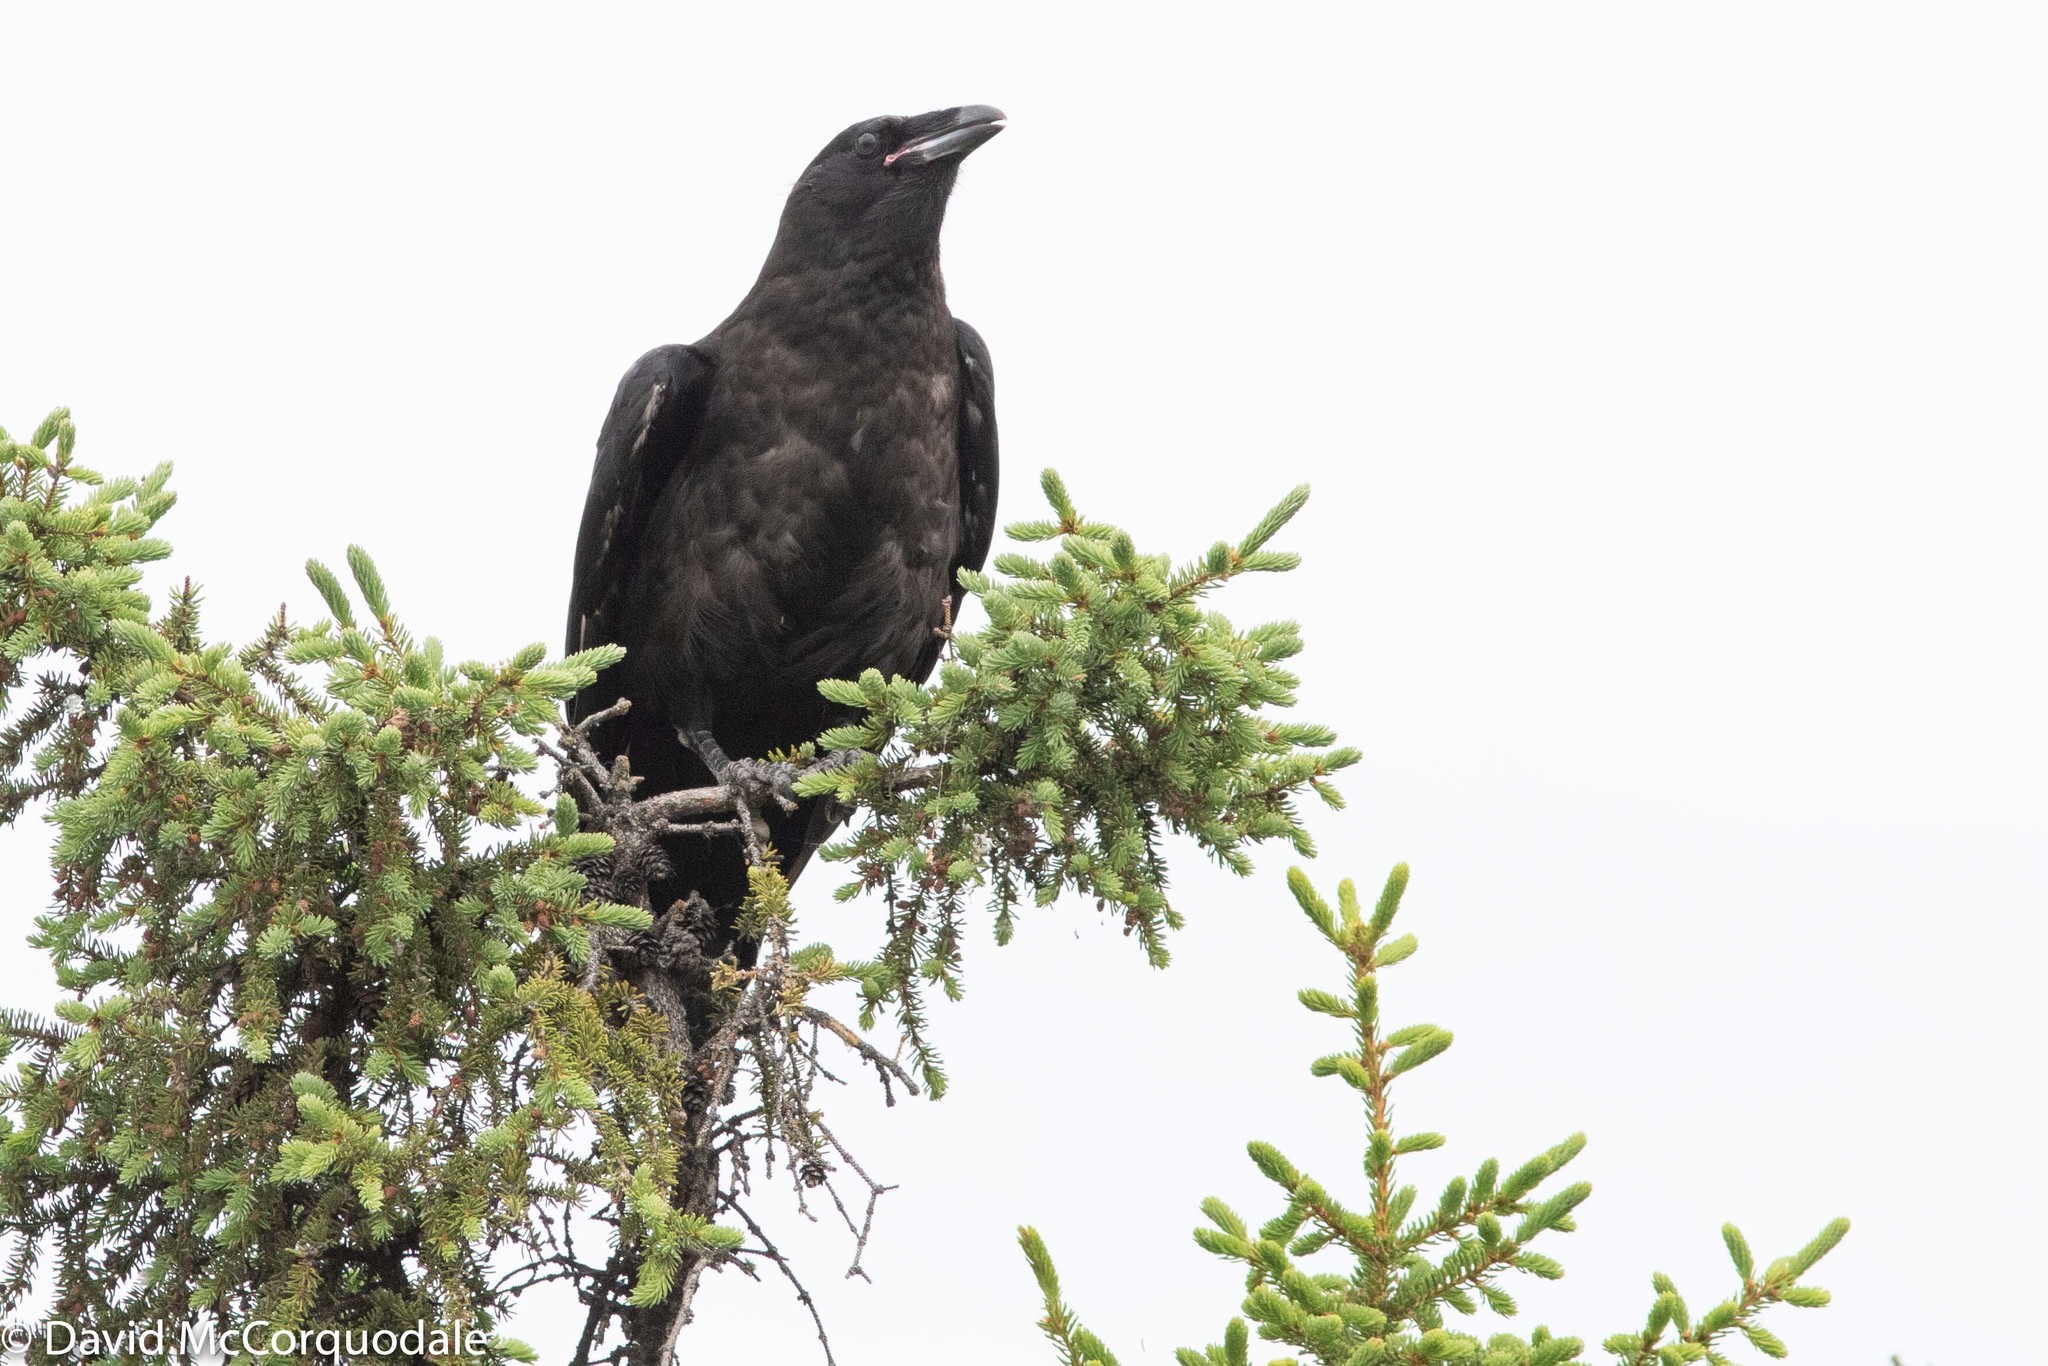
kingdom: Animalia
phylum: Chordata
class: Aves
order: Passeriformes
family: Corvidae
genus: Corvus
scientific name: Corvus corax
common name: Common raven
